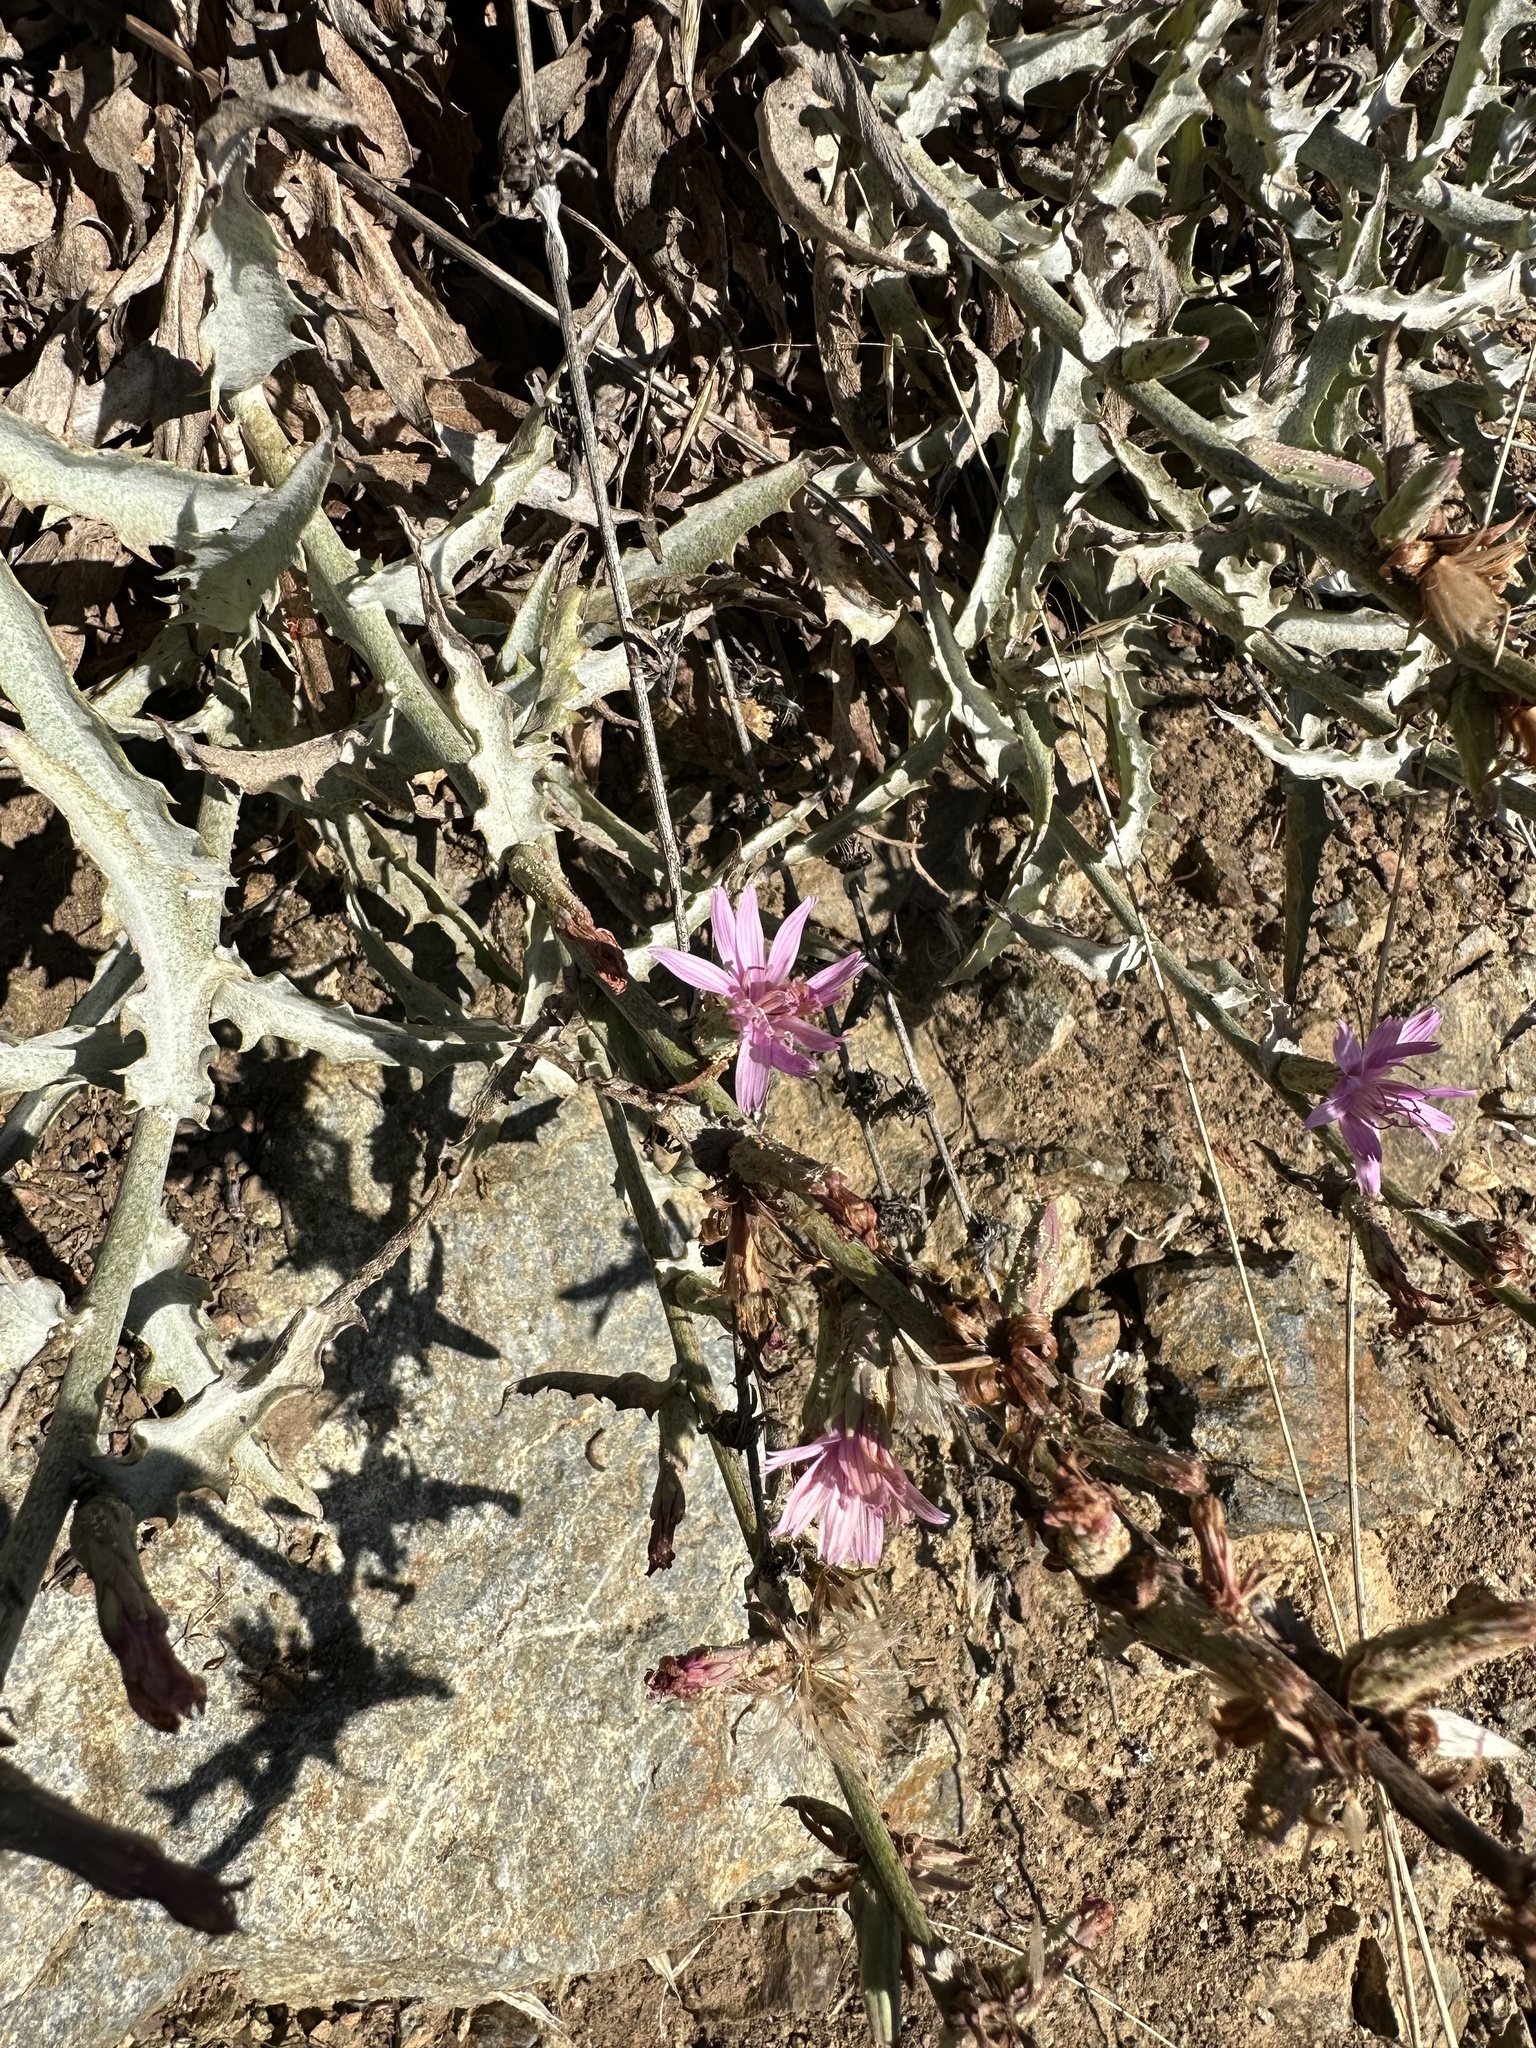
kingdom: Plantae
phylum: Tracheophyta
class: Magnoliopsida
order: Asterales
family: Asteraceae
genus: Stephanomeria
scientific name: Stephanomeria cichoriacea
